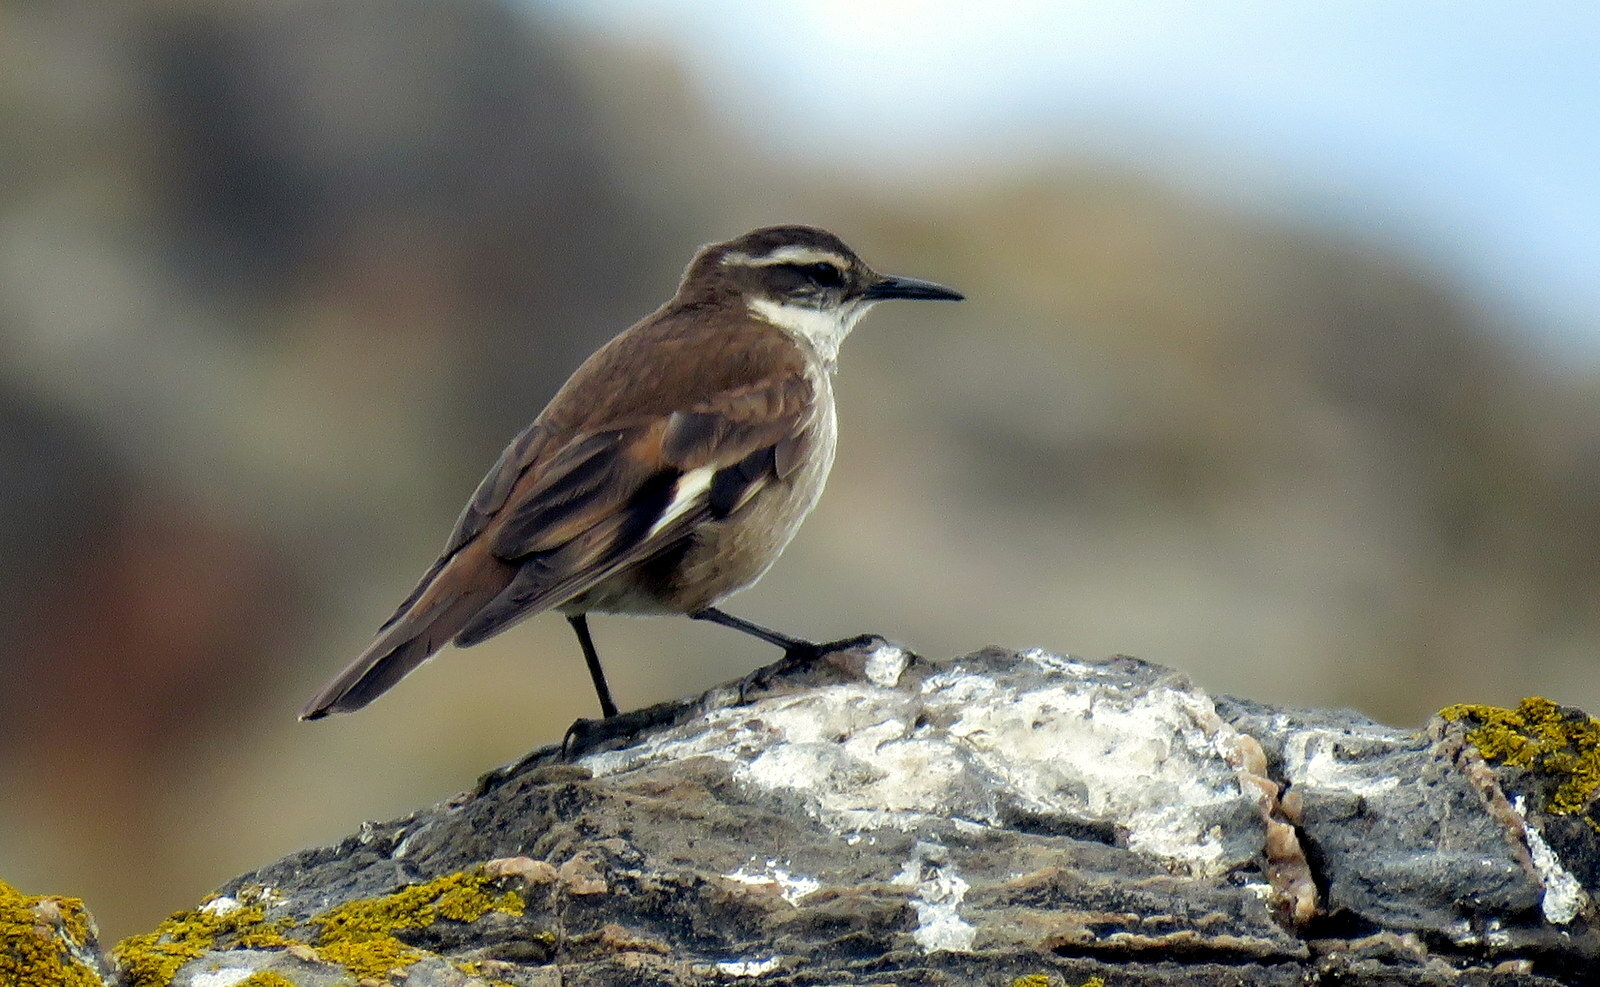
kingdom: Animalia
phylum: Chordata
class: Aves
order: Passeriformes
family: Furnariidae
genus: Cinclodes
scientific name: Cinclodes atacamensis
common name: White-winged cinclodes
